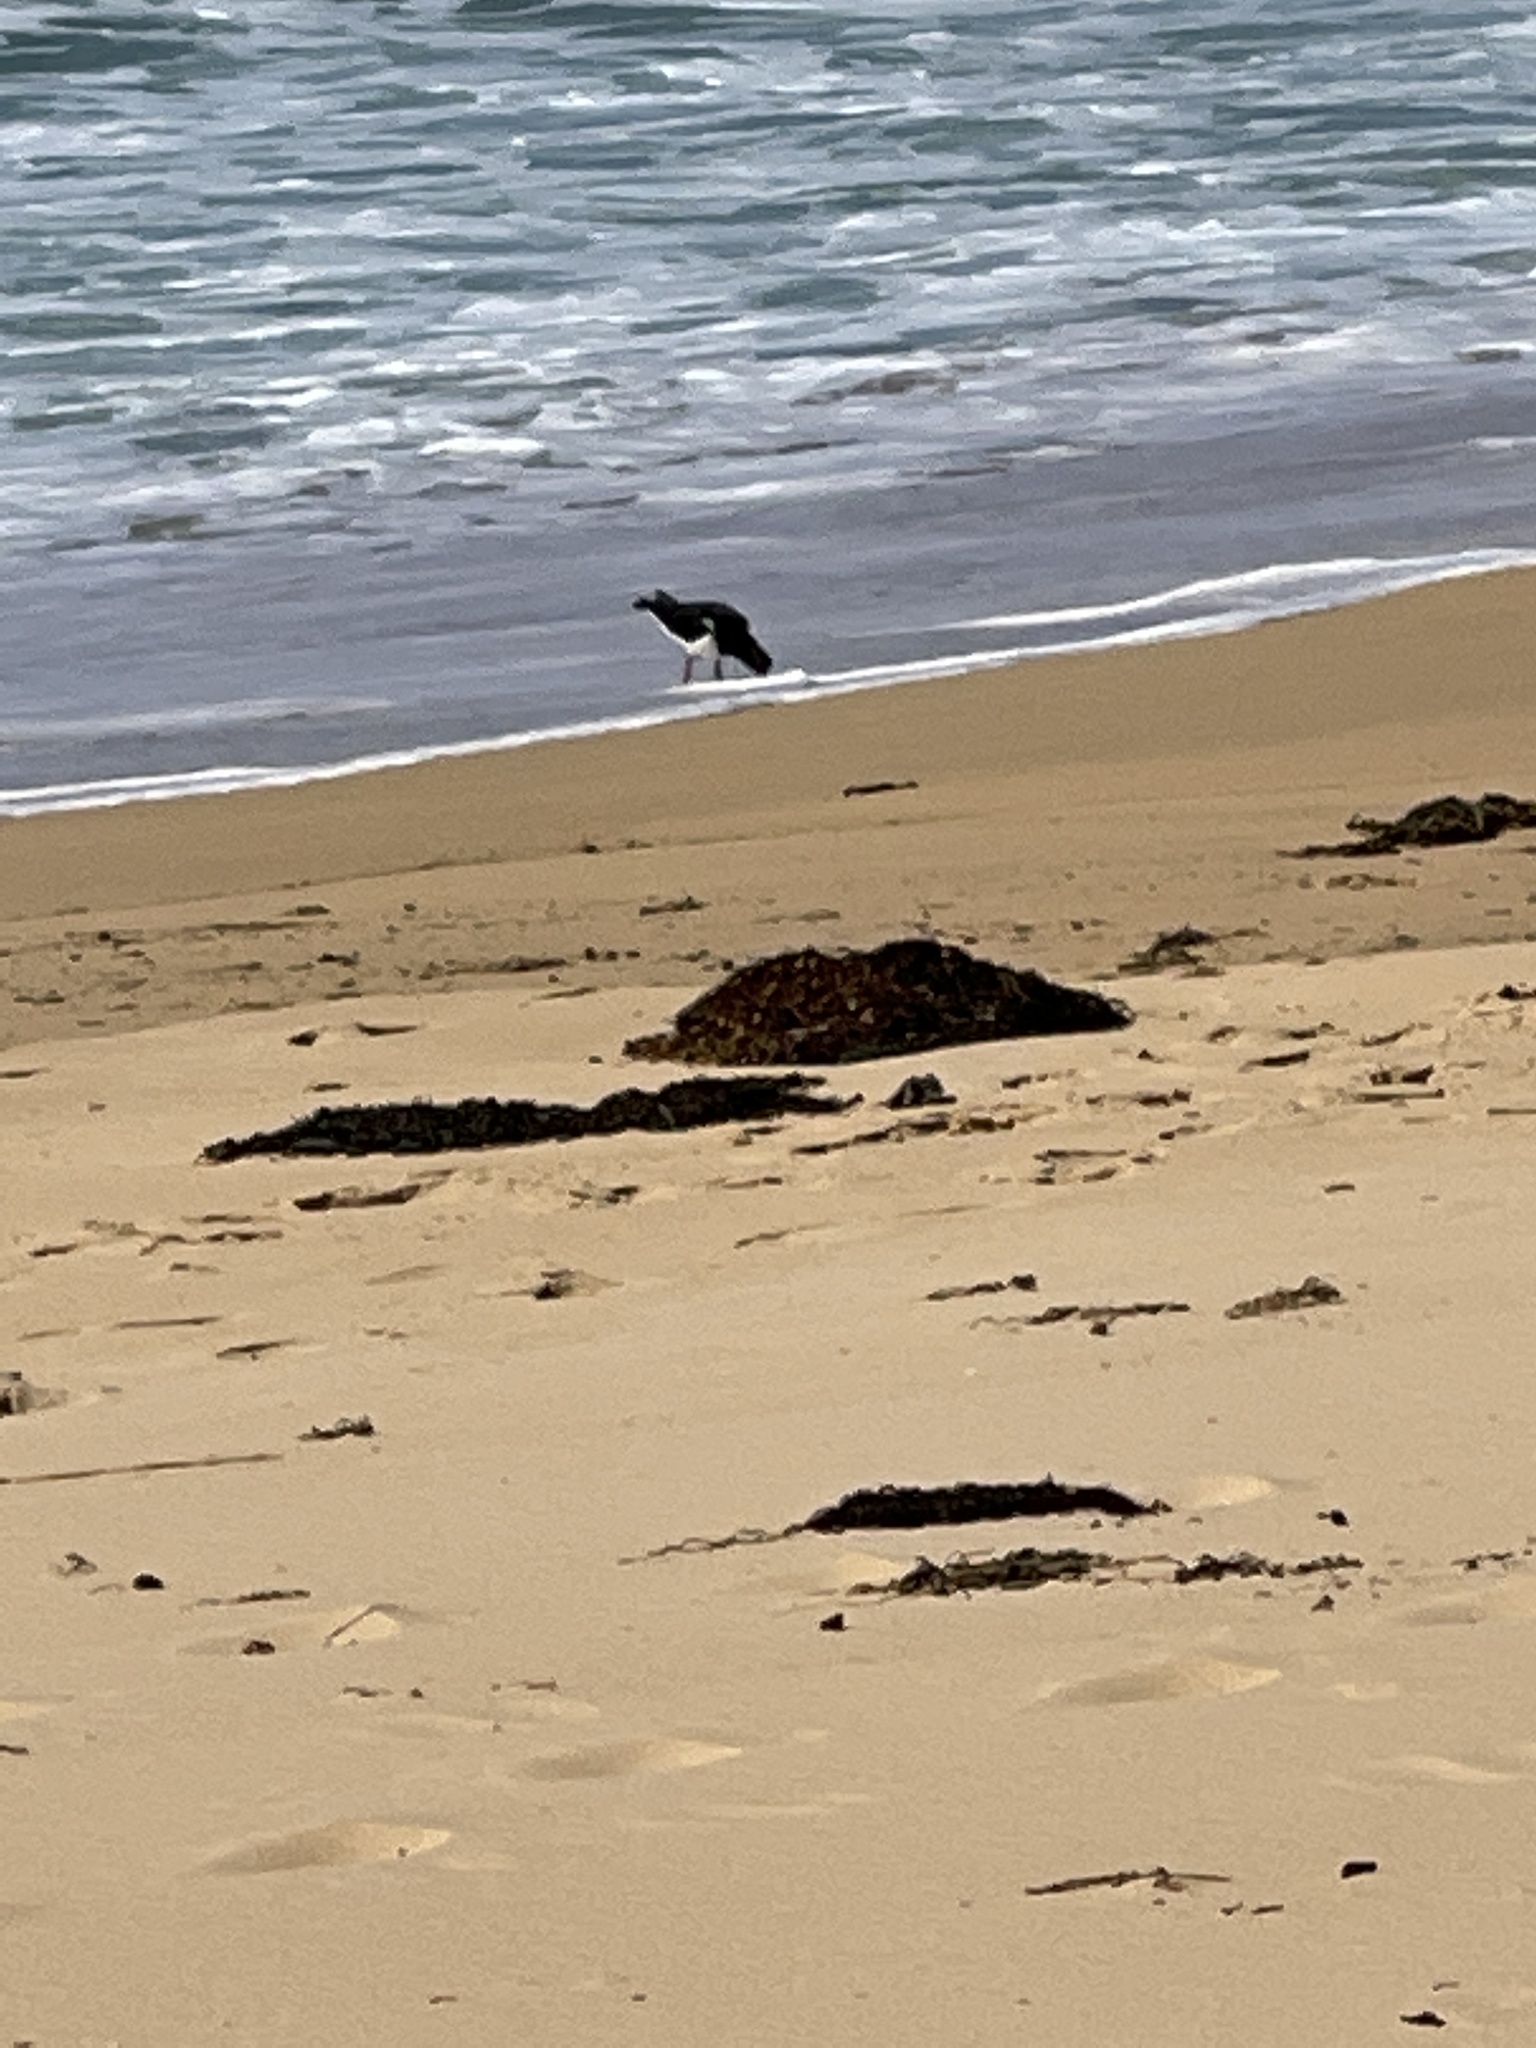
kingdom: Animalia
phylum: Chordata
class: Aves
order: Charadriiformes
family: Haematopodidae
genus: Haematopus
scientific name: Haematopus longirostris
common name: Pied oystercatcher
